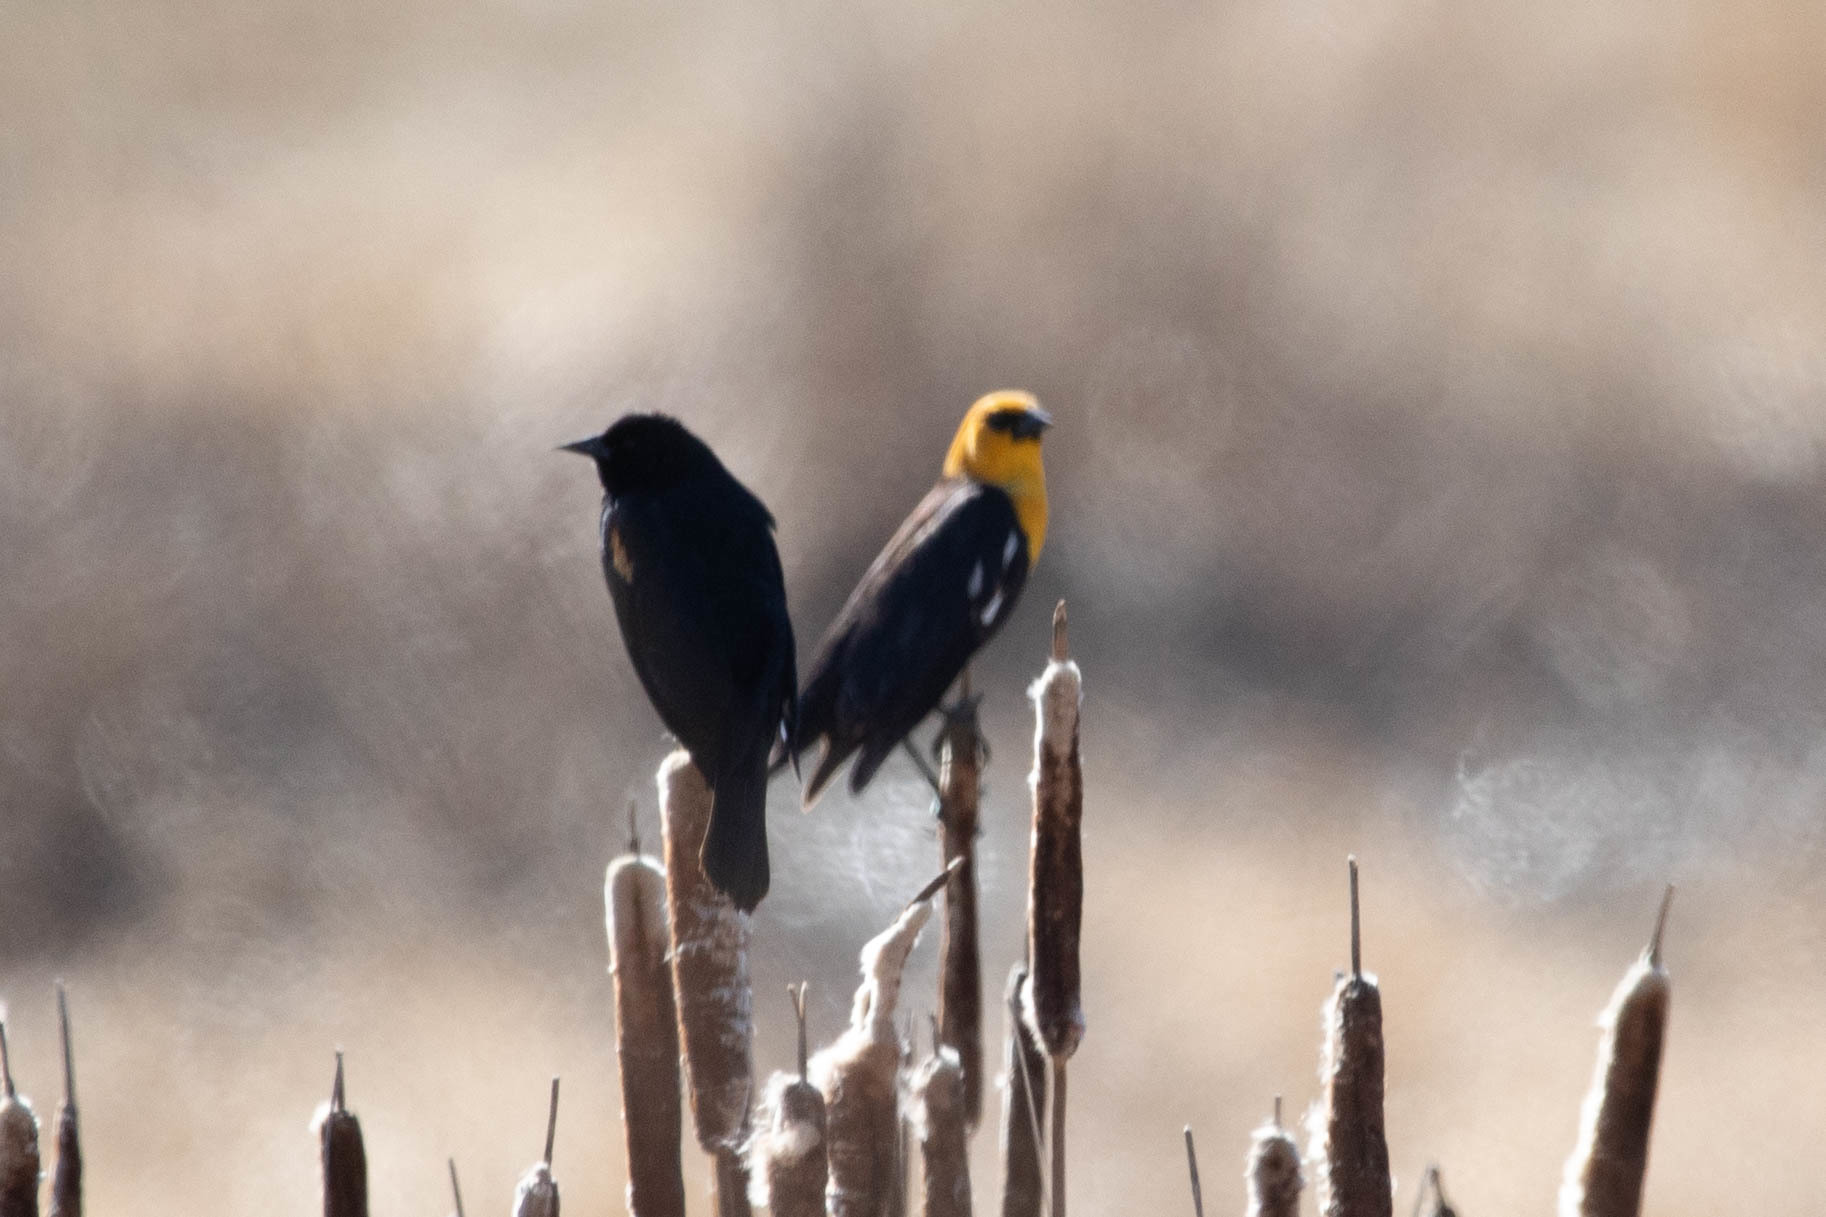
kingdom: Animalia
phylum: Chordata
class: Aves
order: Passeriformes
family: Icteridae
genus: Xanthocephalus
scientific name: Xanthocephalus xanthocephalus
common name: Yellow-headed blackbird
